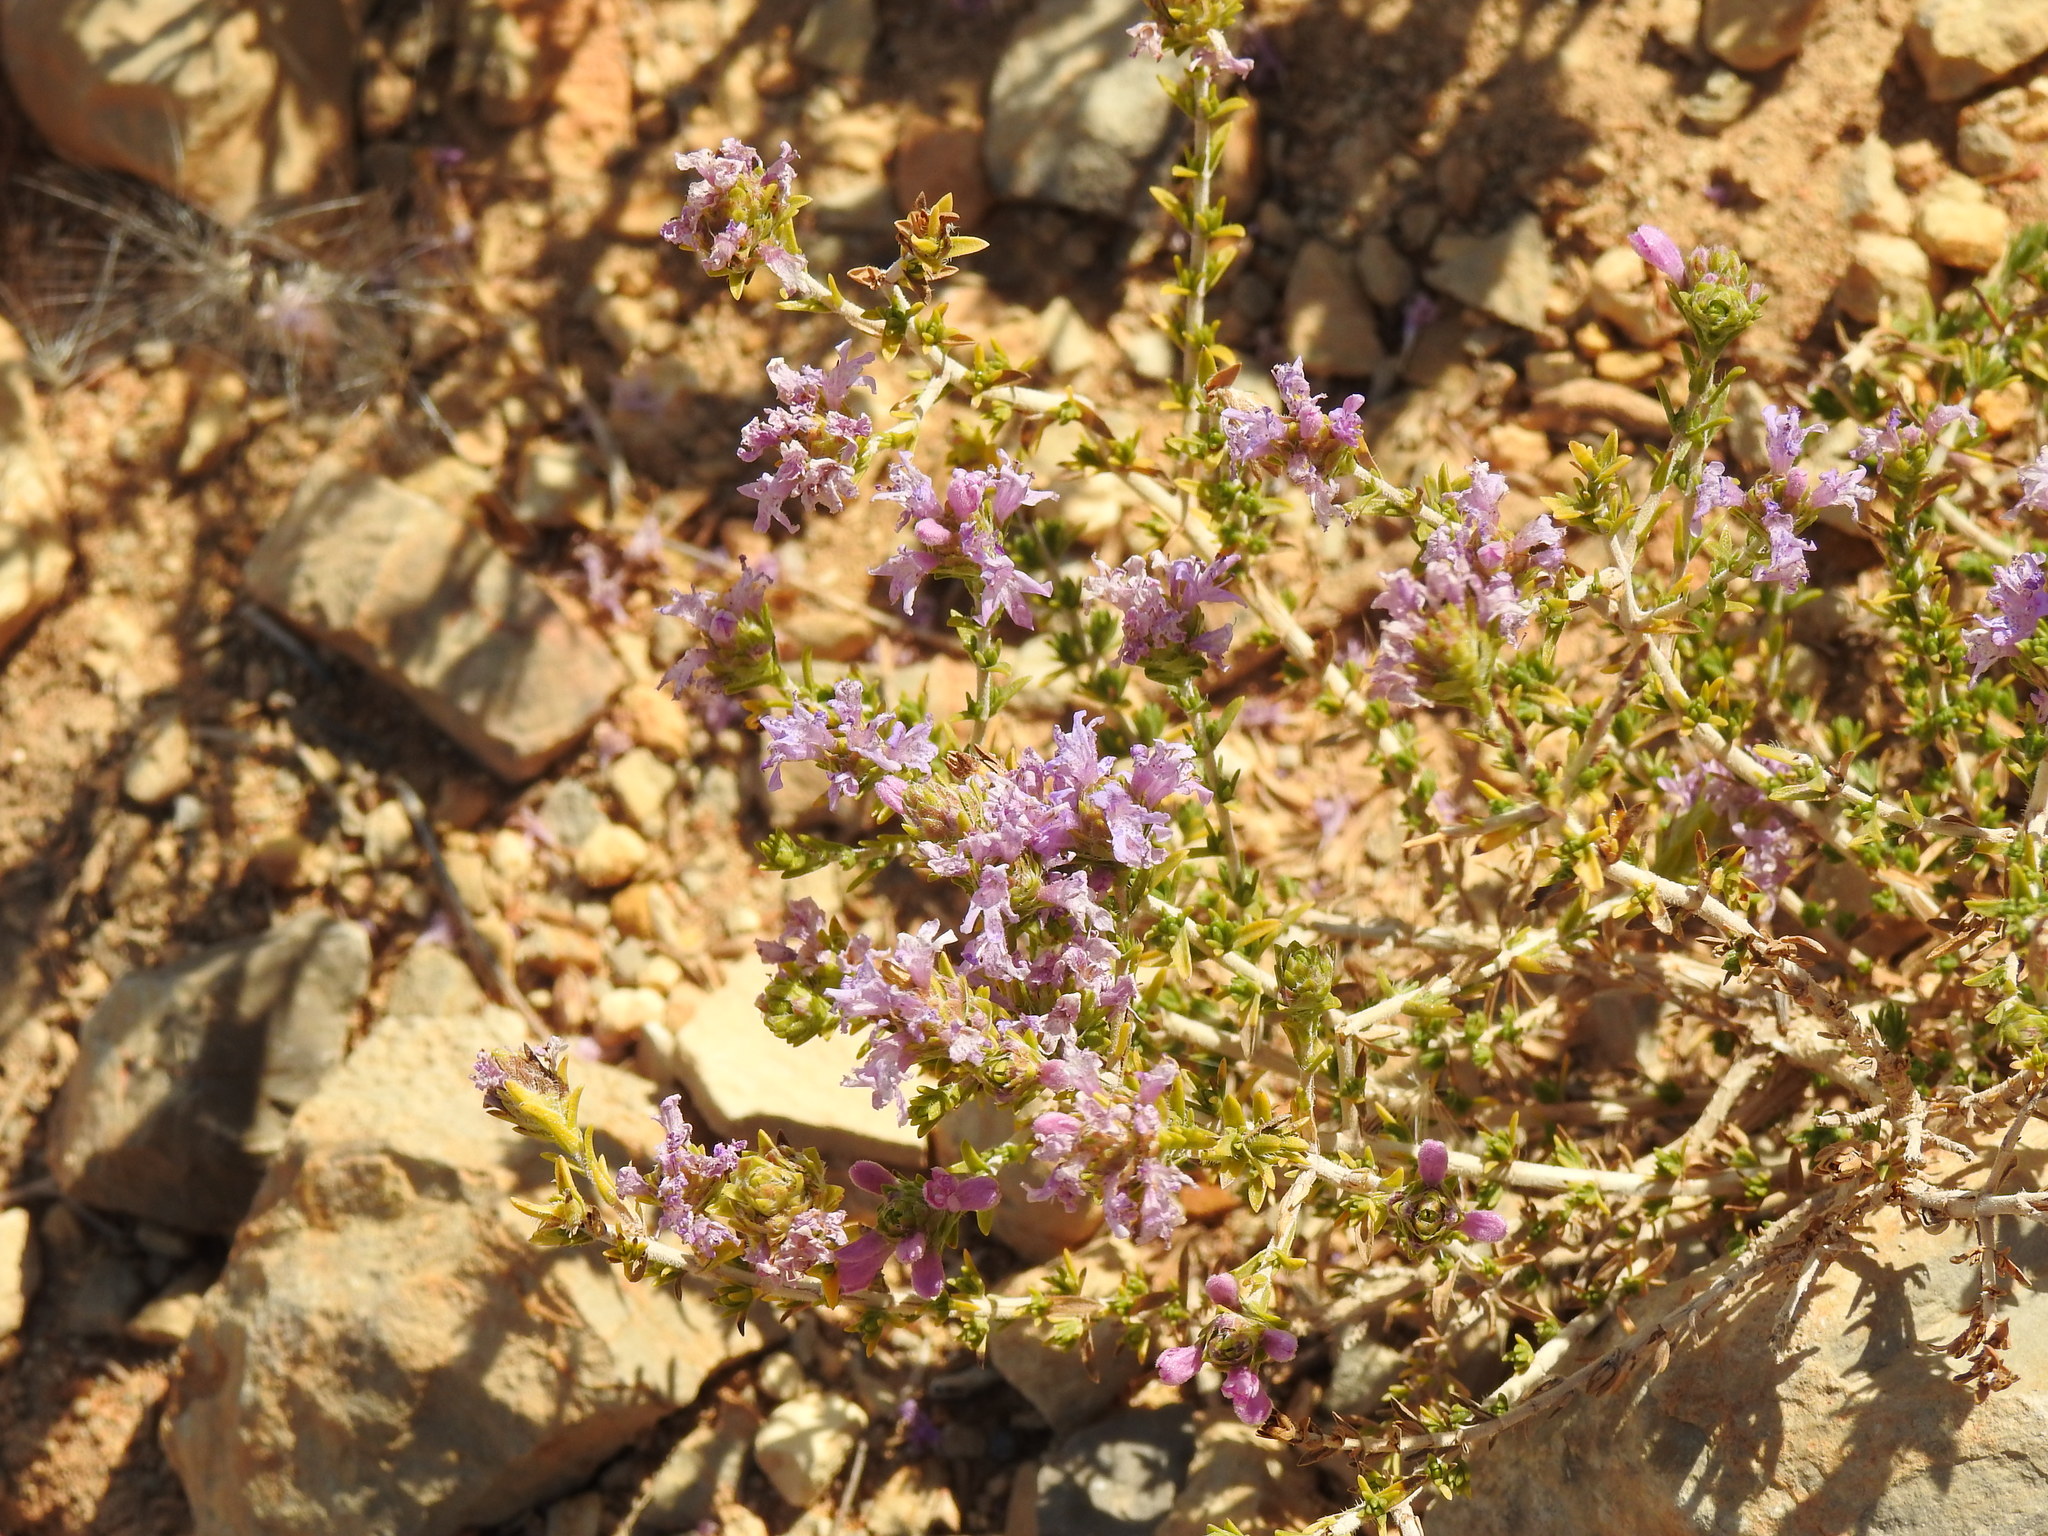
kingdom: Plantae
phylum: Tracheophyta
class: Magnoliopsida
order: Lamiales
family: Lamiaceae
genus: Thymbra
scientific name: Thymbra capitata
